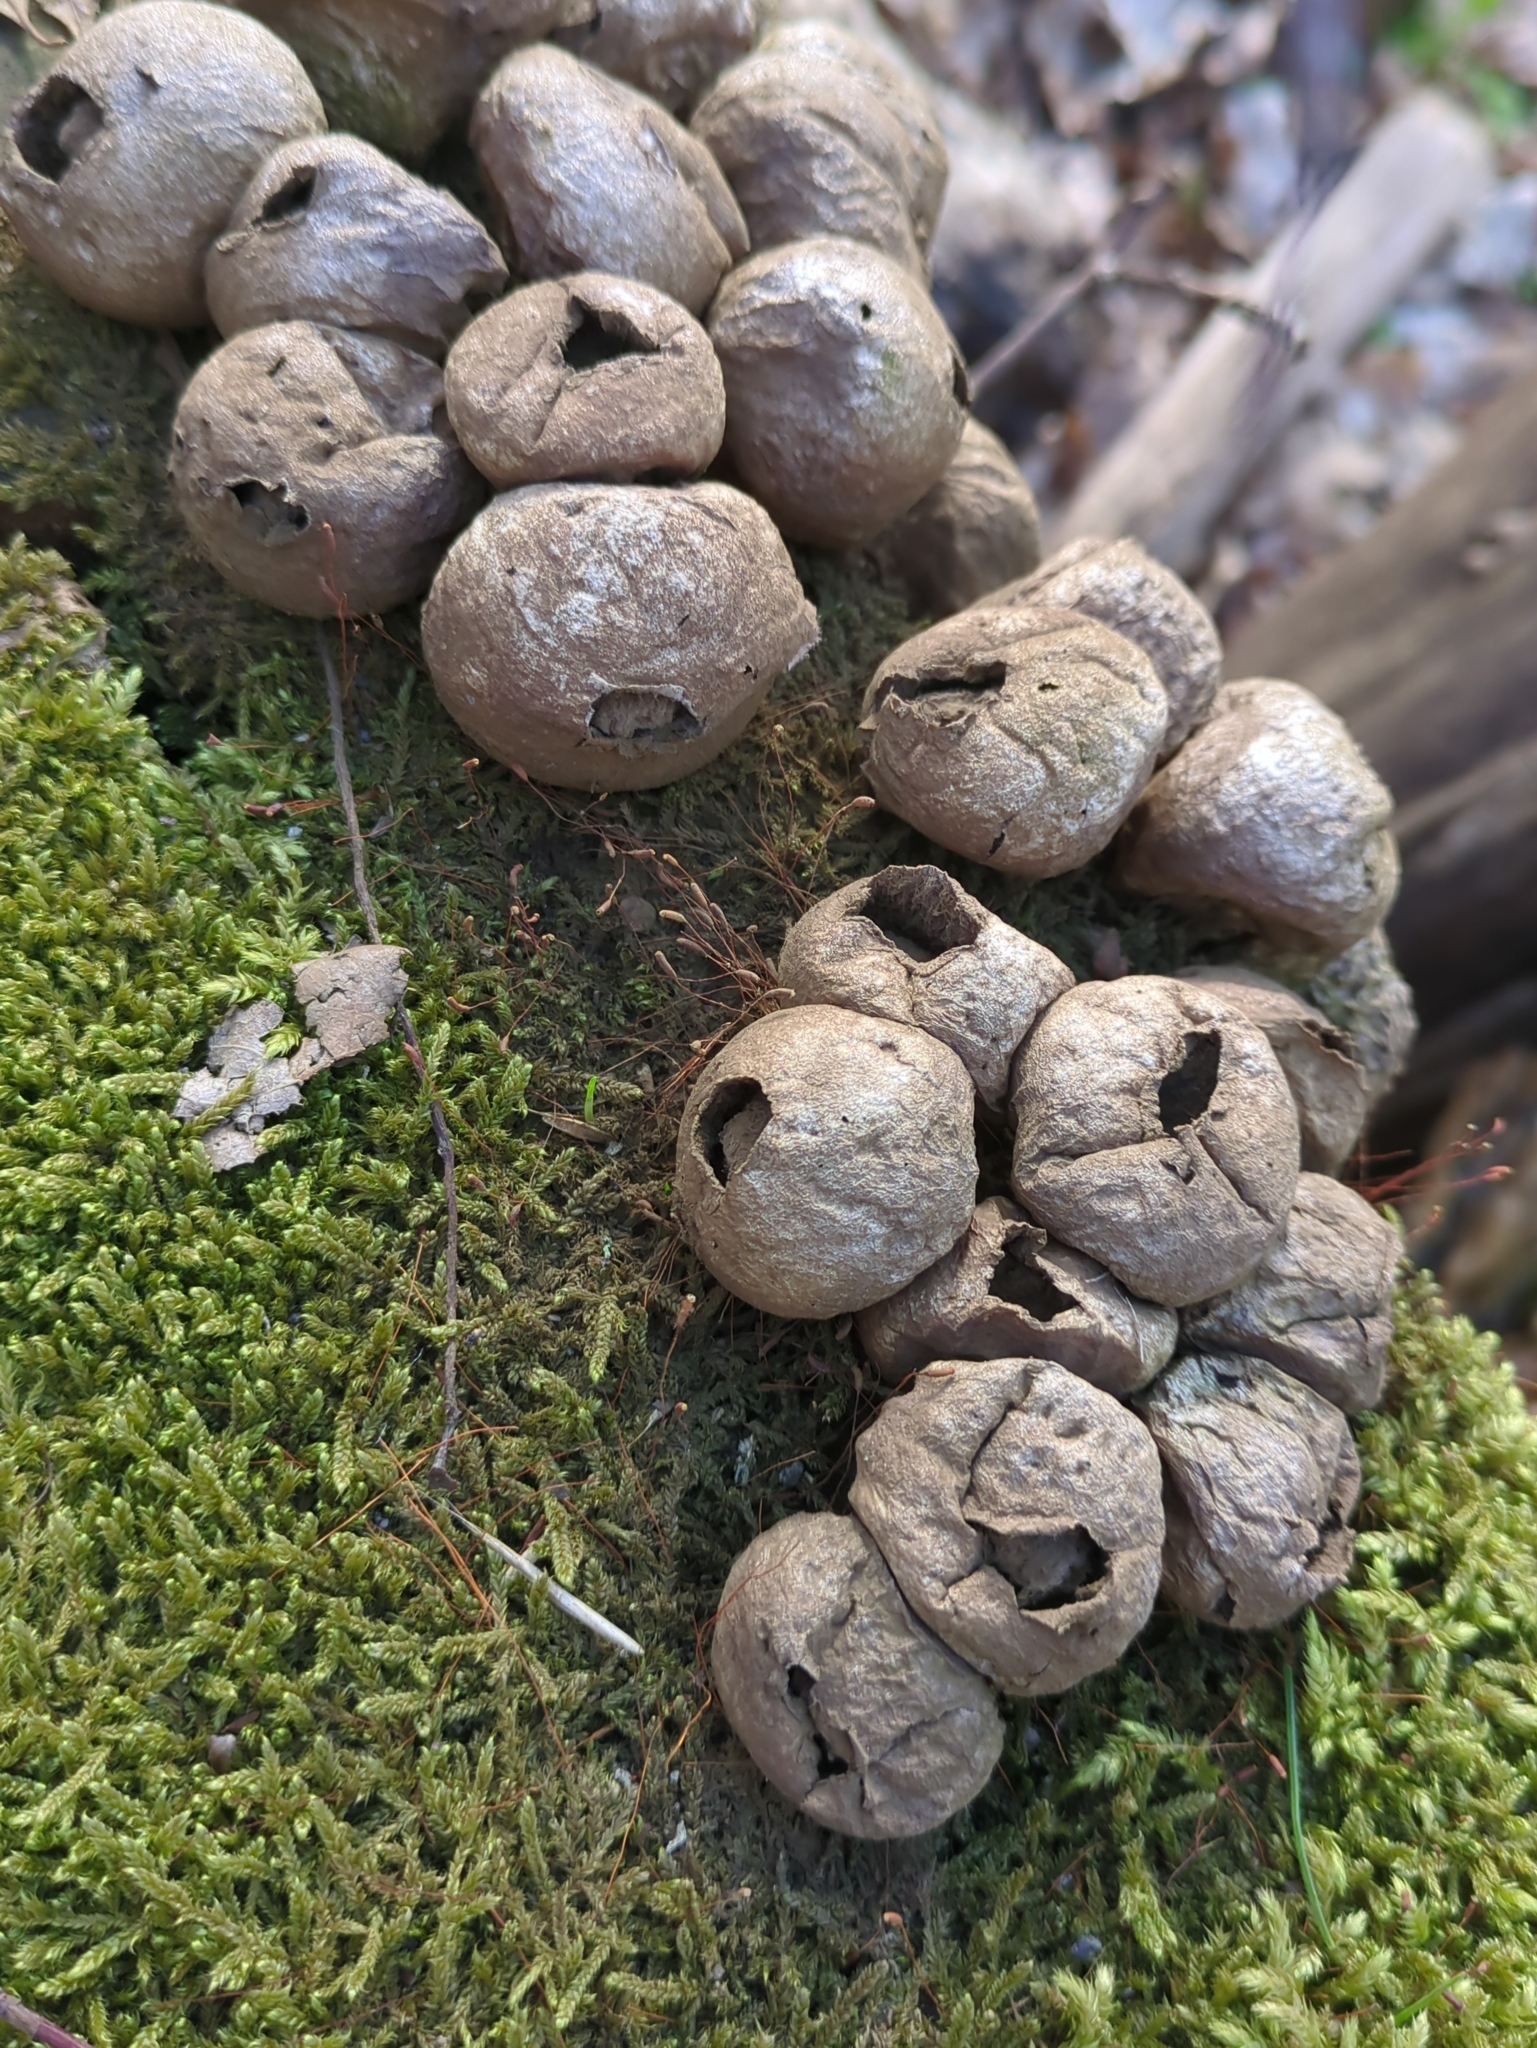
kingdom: Fungi
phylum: Basidiomycota
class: Agaricomycetes
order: Agaricales
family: Lycoperdaceae
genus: Apioperdon
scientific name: Apioperdon pyriforme
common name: Pear-shaped puffball
